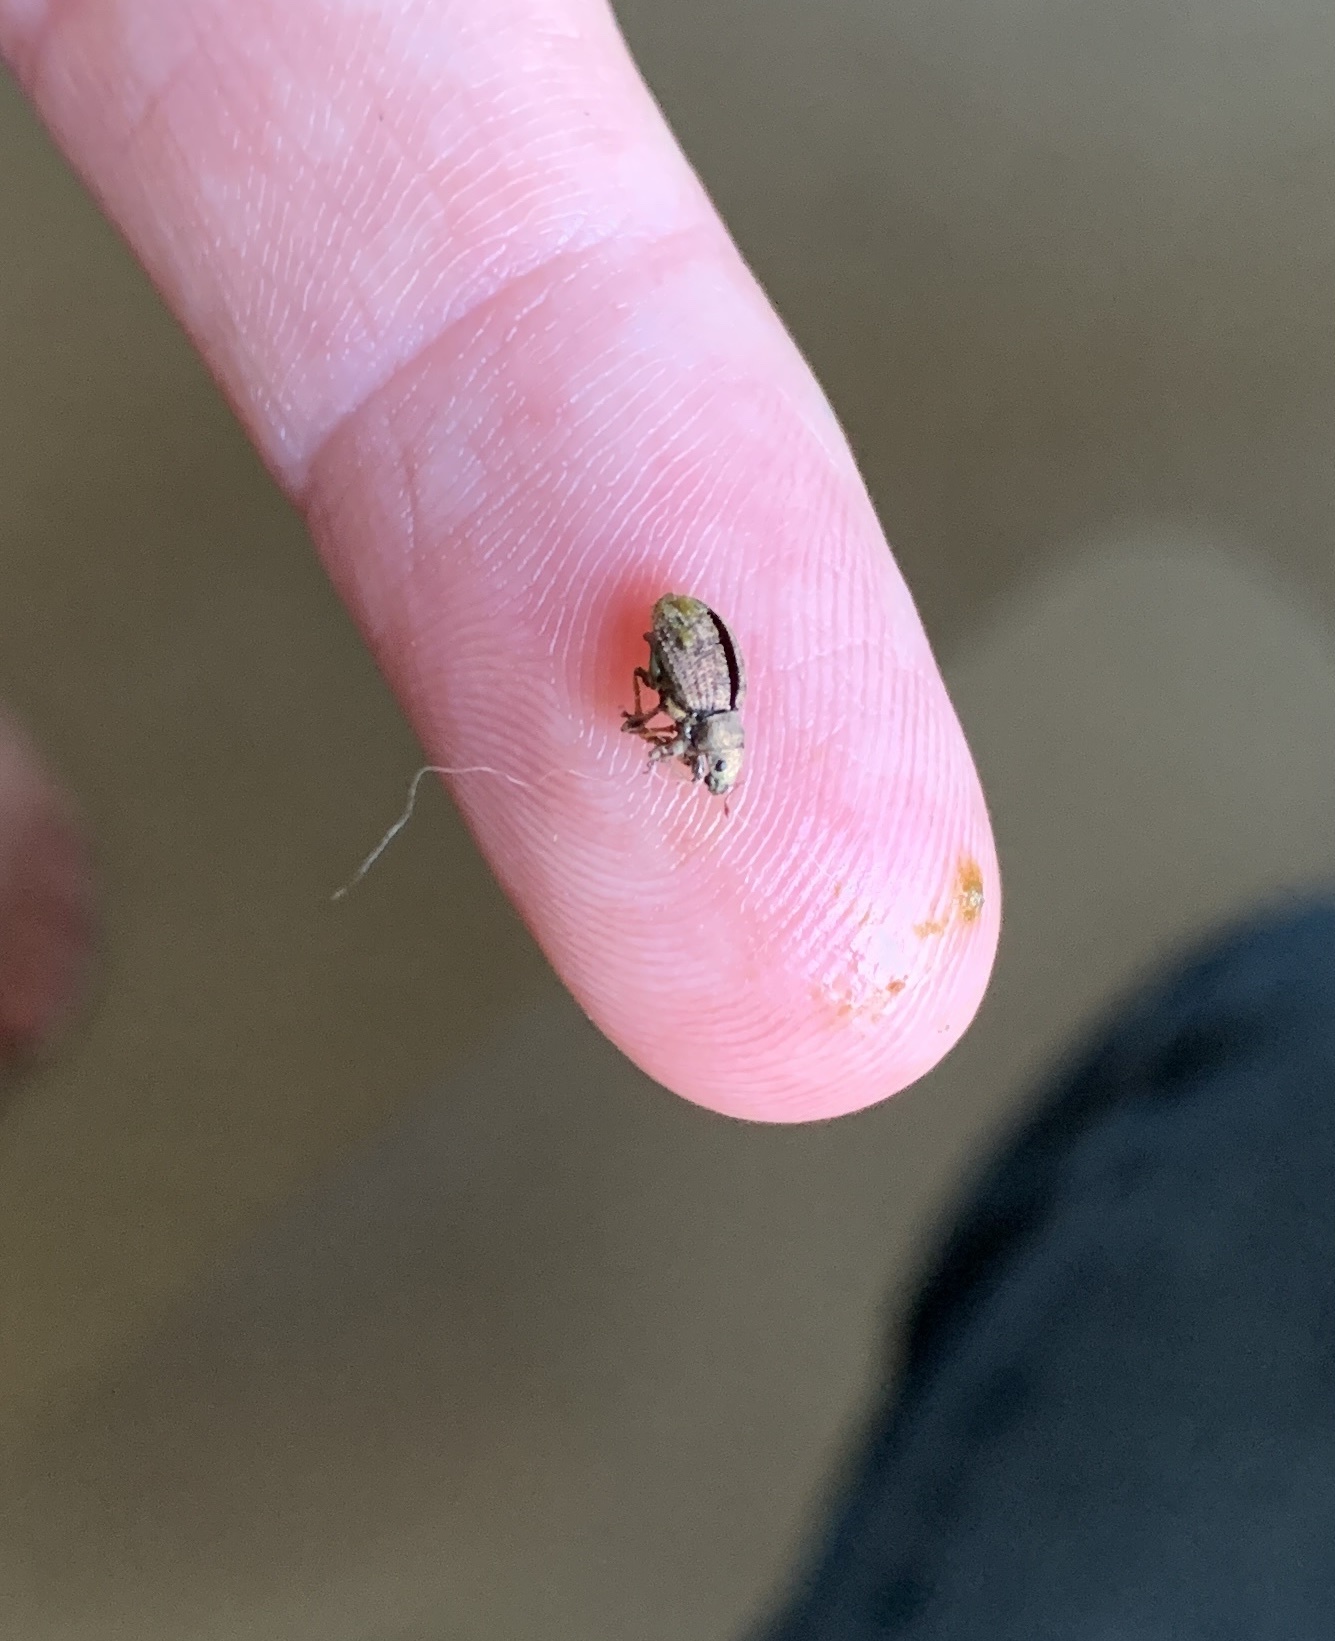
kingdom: Animalia
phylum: Arthropoda
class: Insecta
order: Coleoptera
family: Curculionidae
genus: Sciaphilus
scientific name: Sciaphilus asperatus
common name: Weevil
